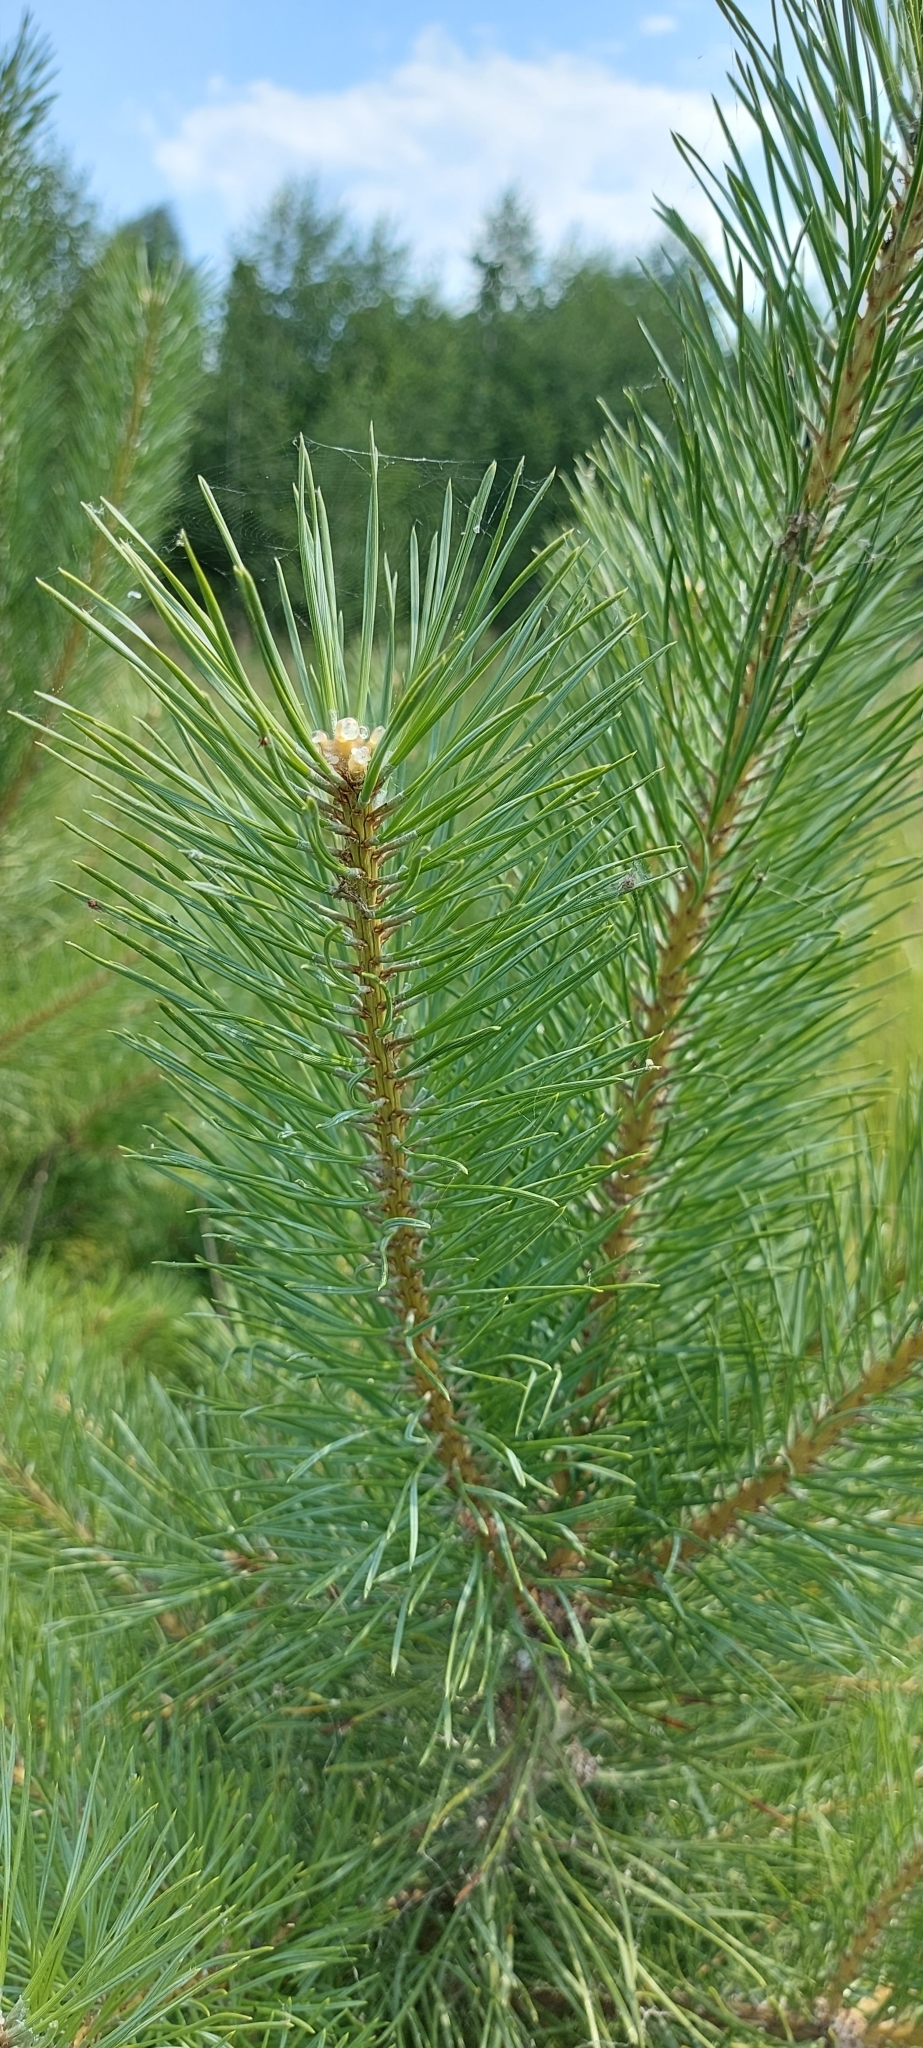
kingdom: Plantae
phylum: Tracheophyta
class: Pinopsida
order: Pinales
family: Pinaceae
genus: Pinus
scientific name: Pinus sylvestris
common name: Scots pine
